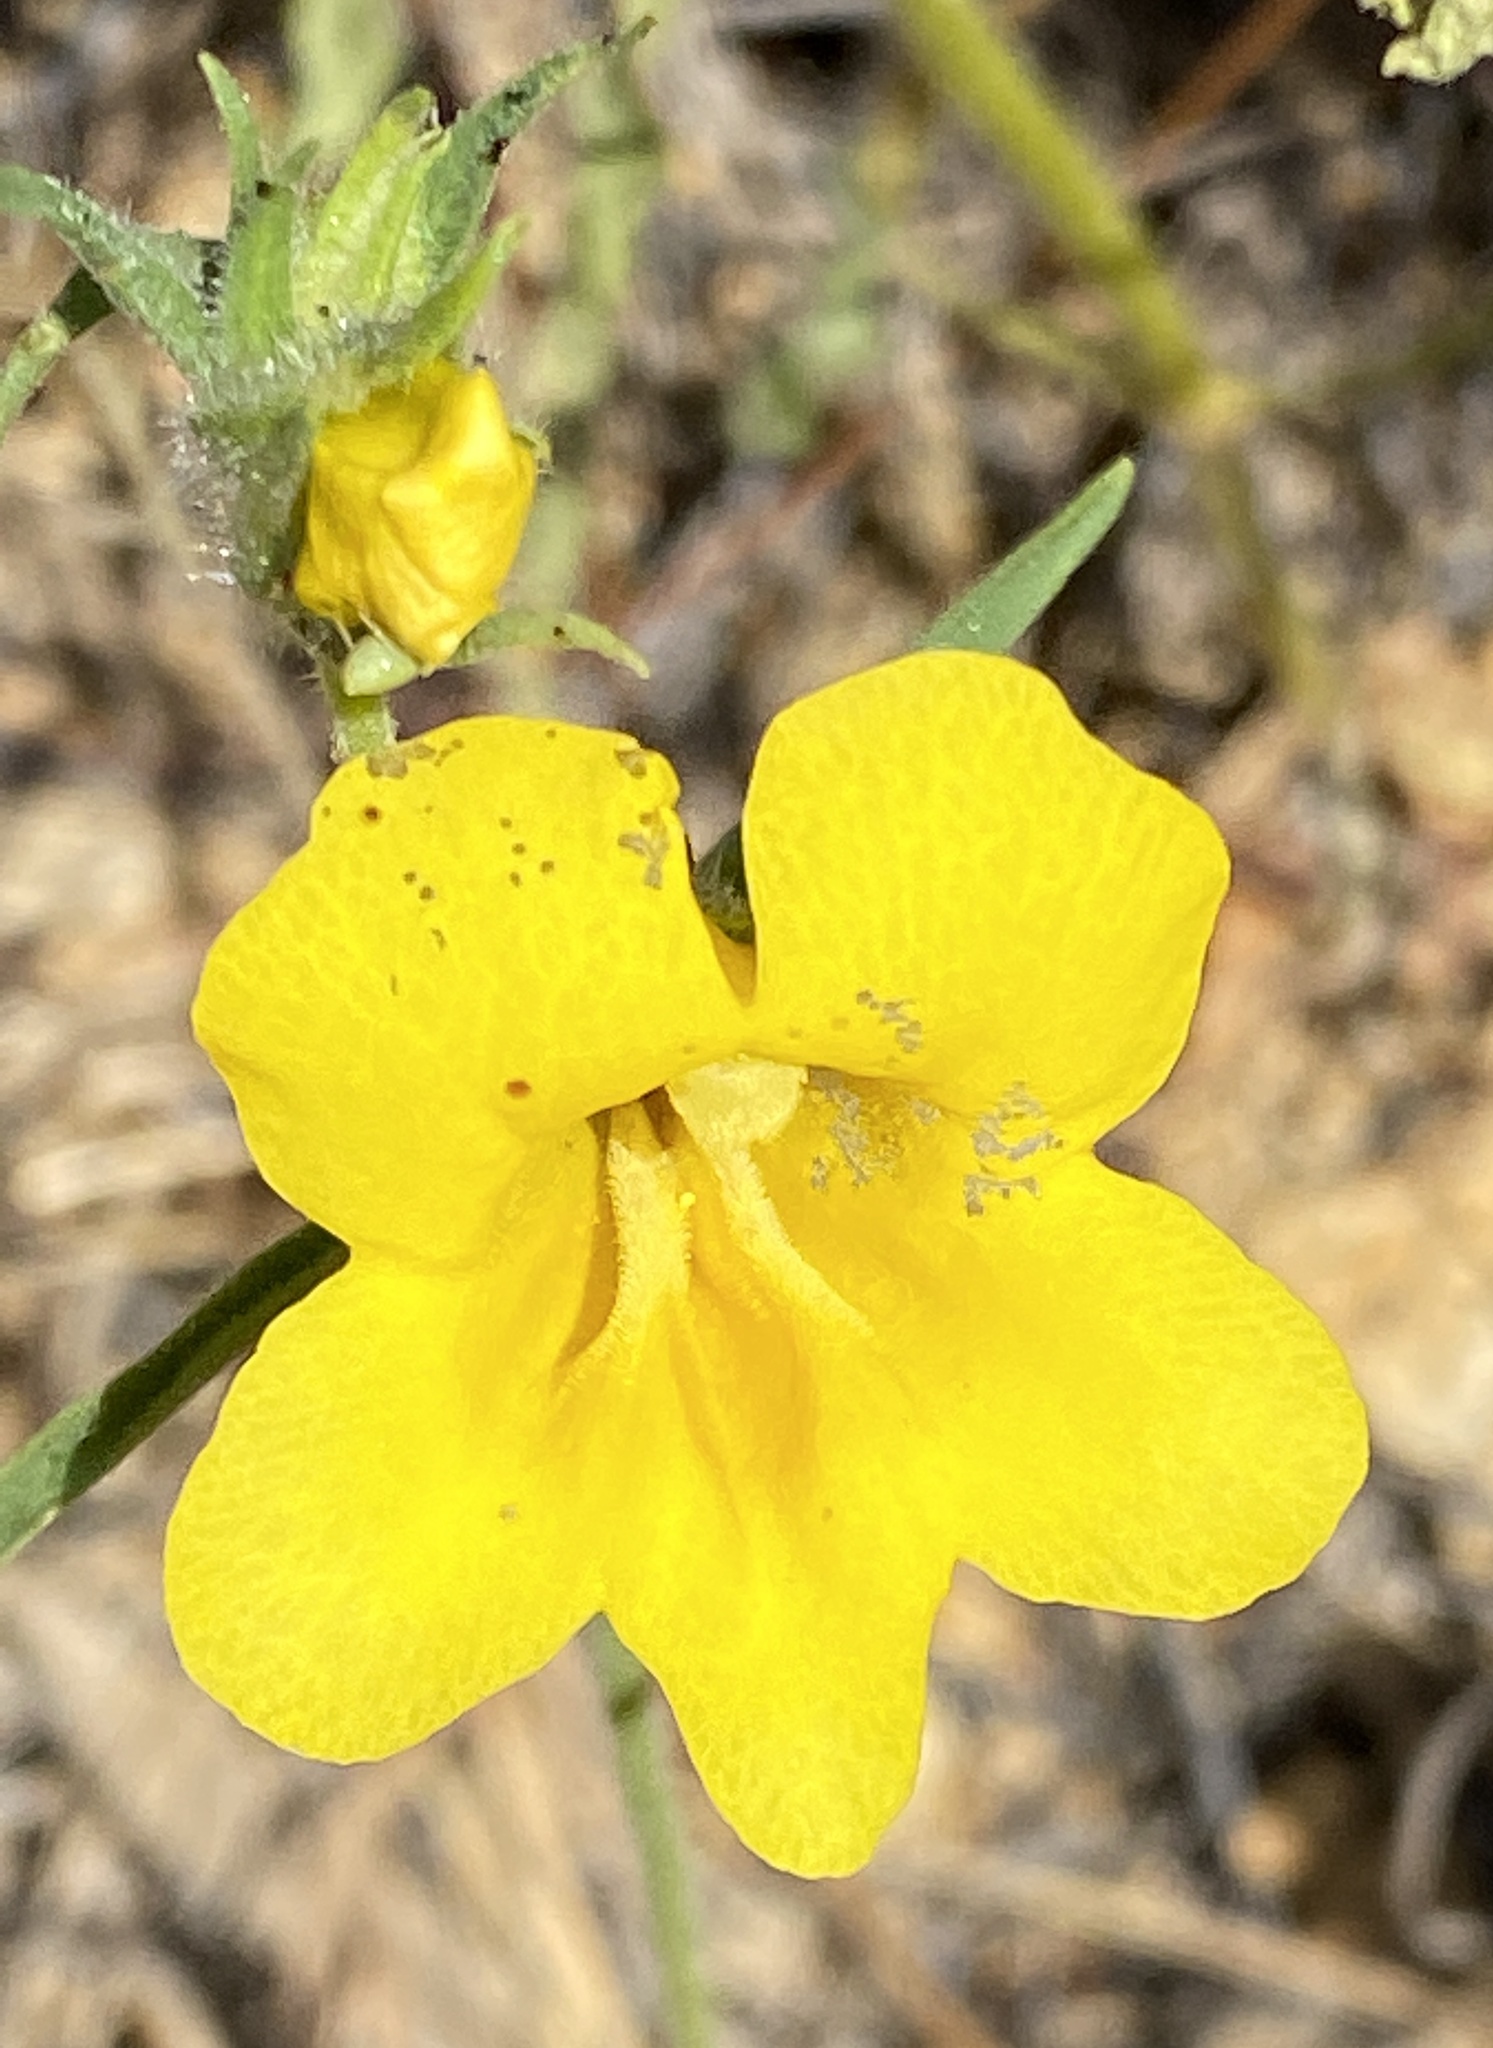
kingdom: Plantae
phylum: Tracheophyta
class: Magnoliopsida
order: Lamiales
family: Phrymaceae
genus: Diplacus
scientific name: Diplacus brevipes
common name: Wide-throat yellow monkey-flower
